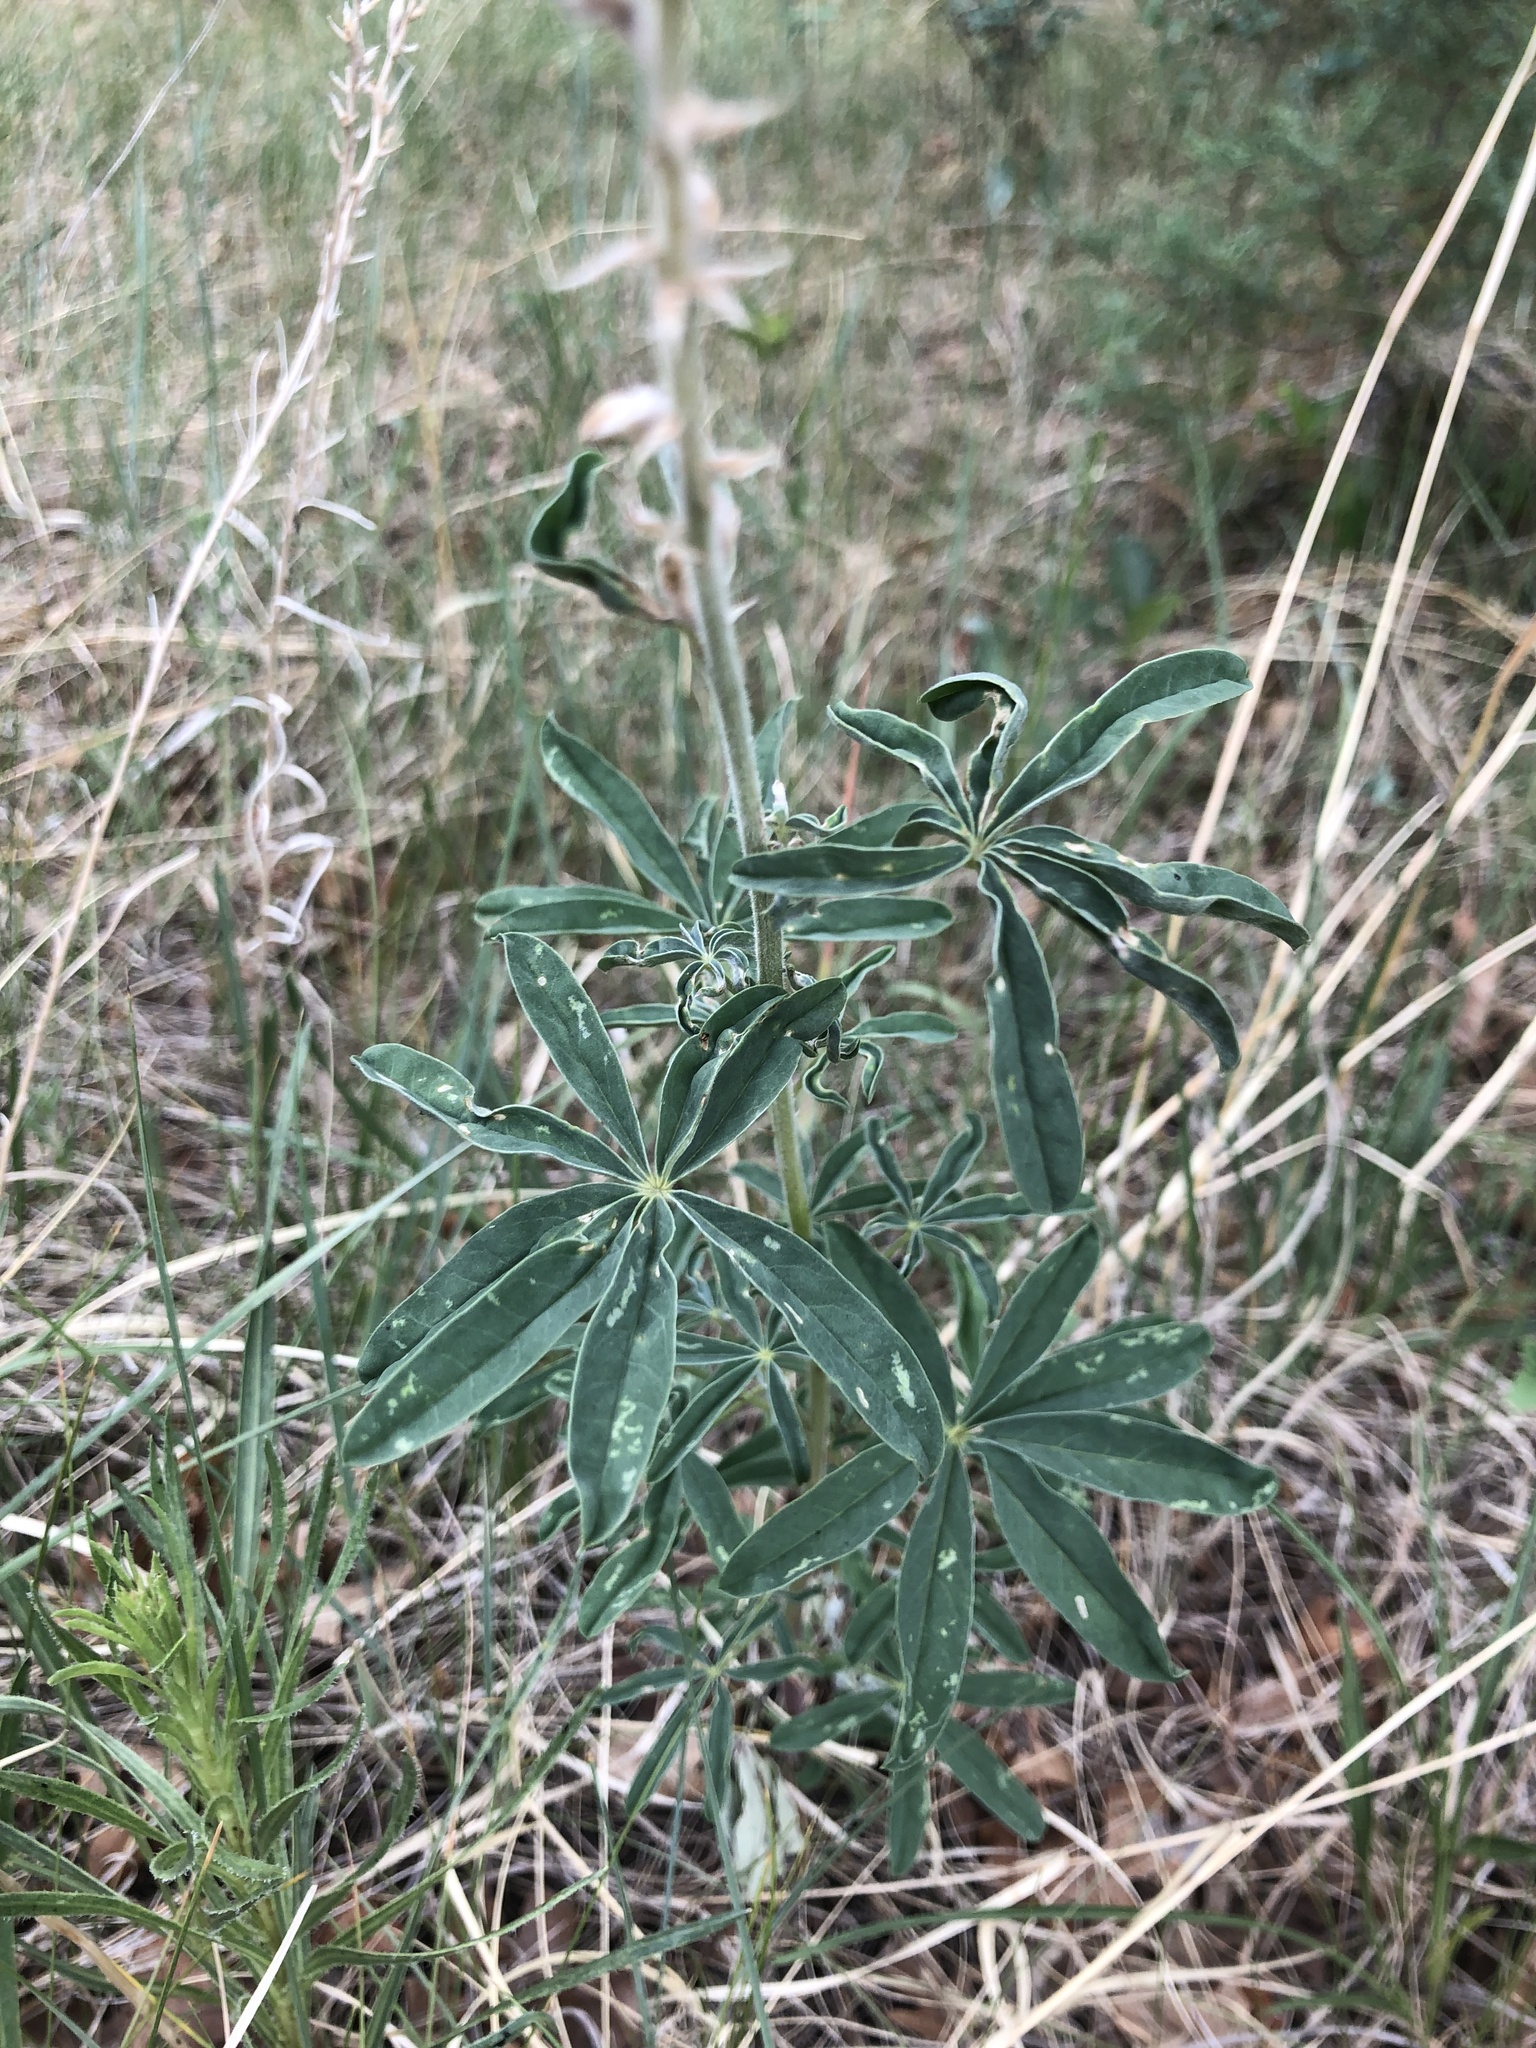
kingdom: Plantae
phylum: Tracheophyta
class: Magnoliopsida
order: Fabales
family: Fabaceae
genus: Lupinus
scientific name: Lupinus argenteus
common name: Silvery lupine
